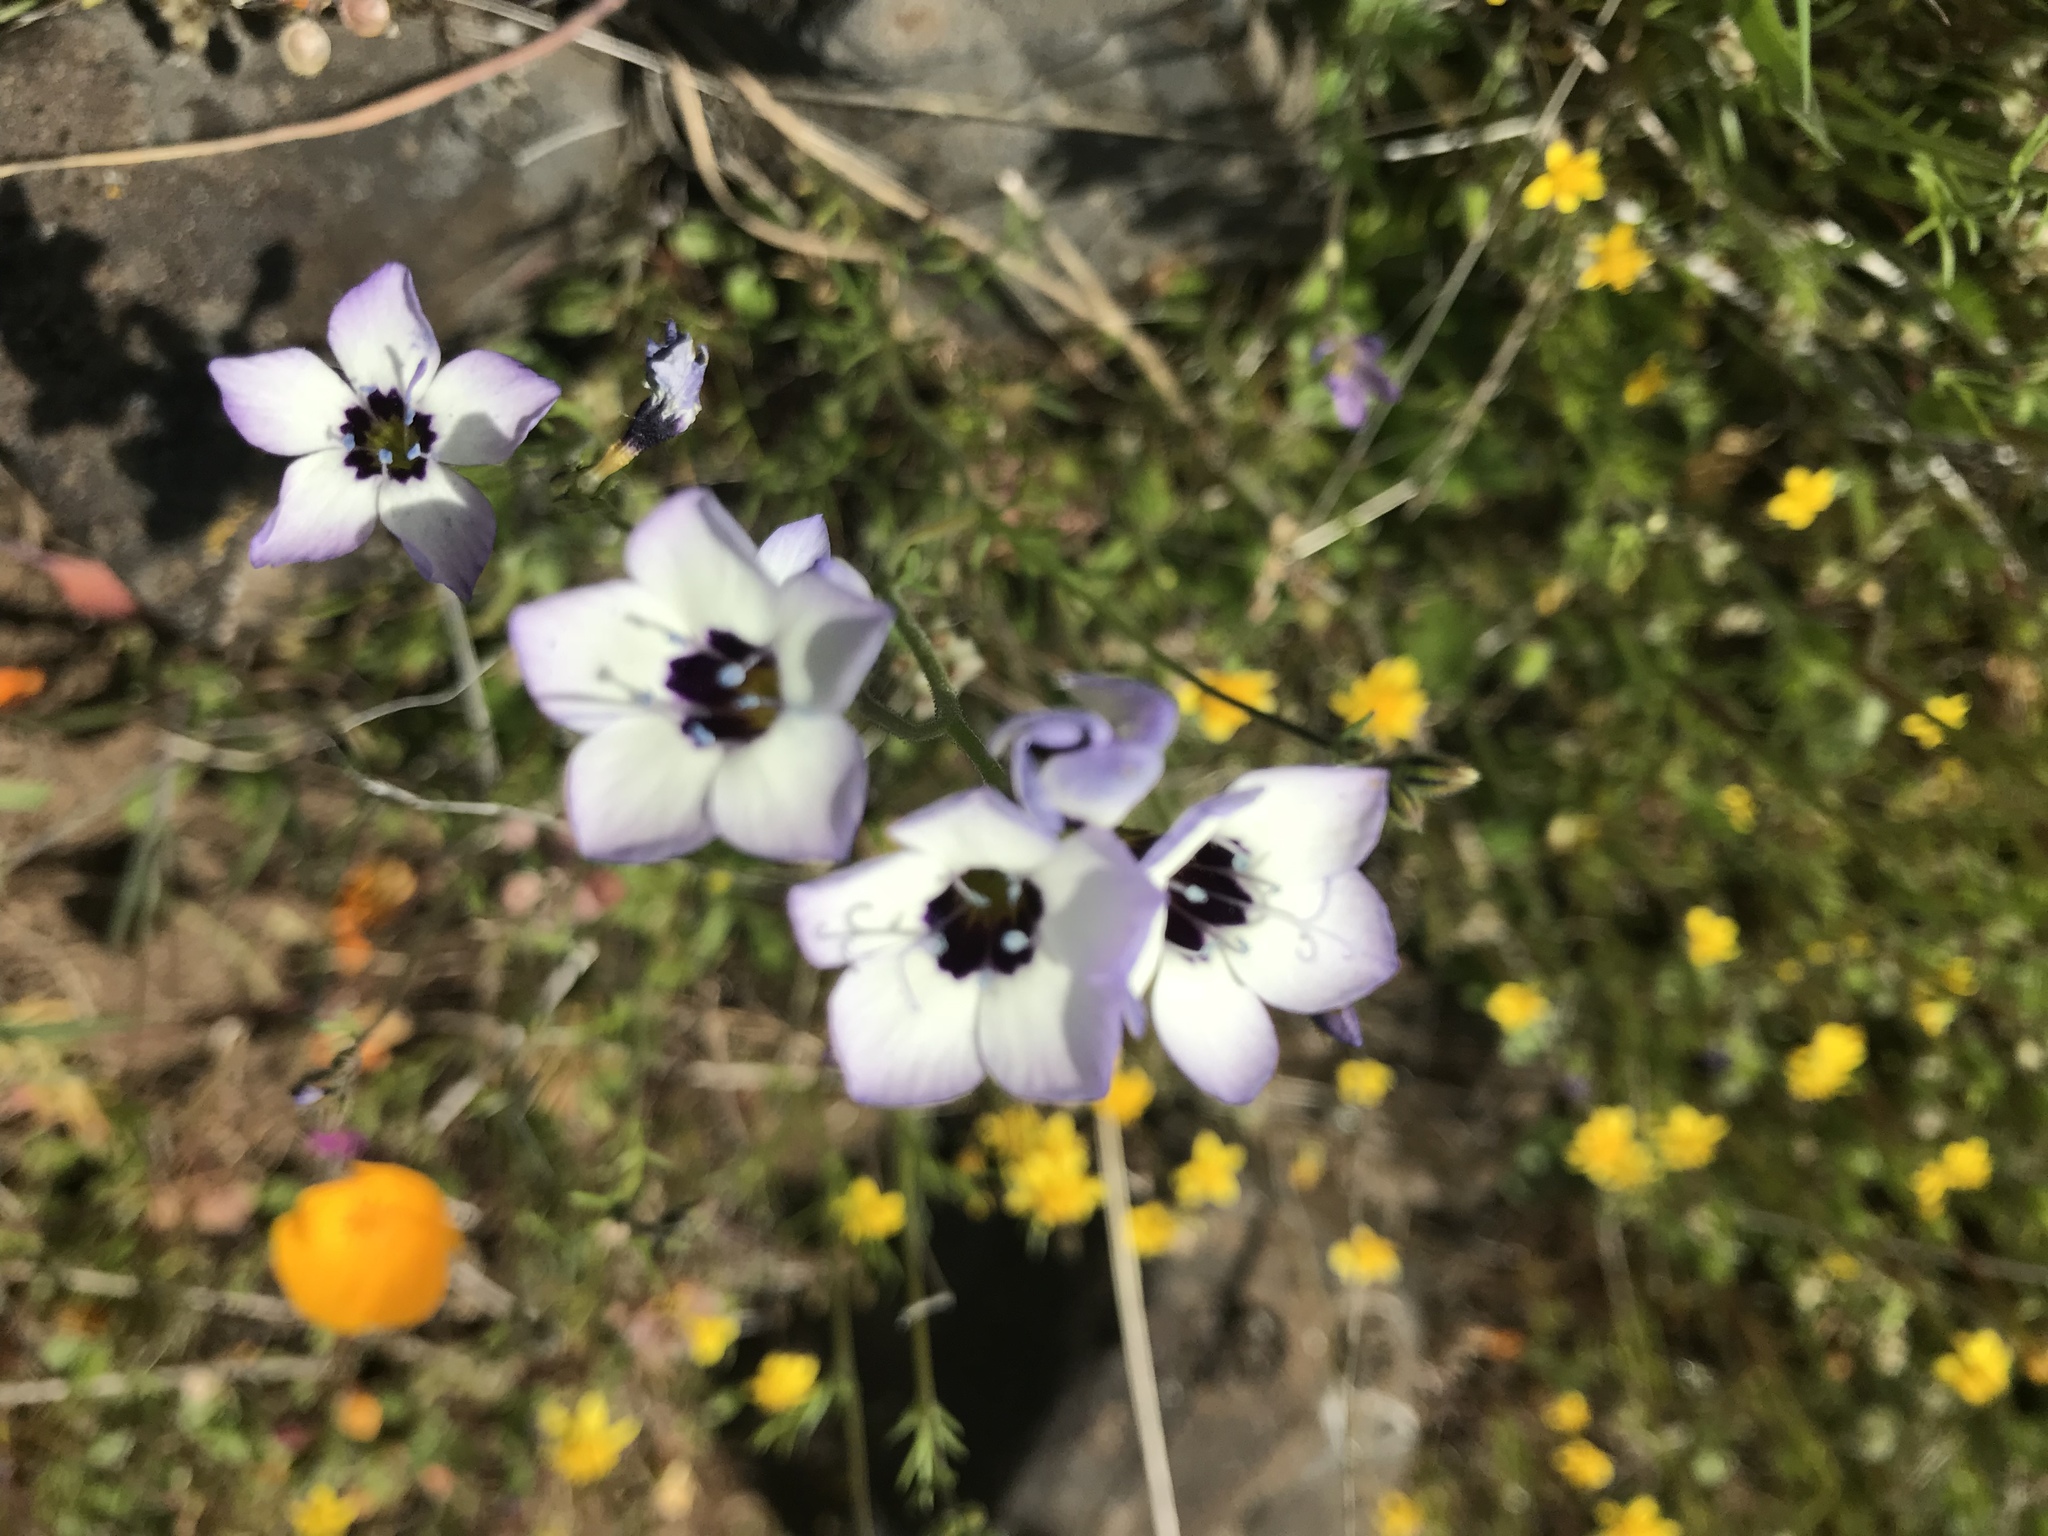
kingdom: Plantae
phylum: Tracheophyta
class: Magnoliopsida
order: Ericales
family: Polemoniaceae
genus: Gilia
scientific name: Gilia tricolor
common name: Bird's-eyes
